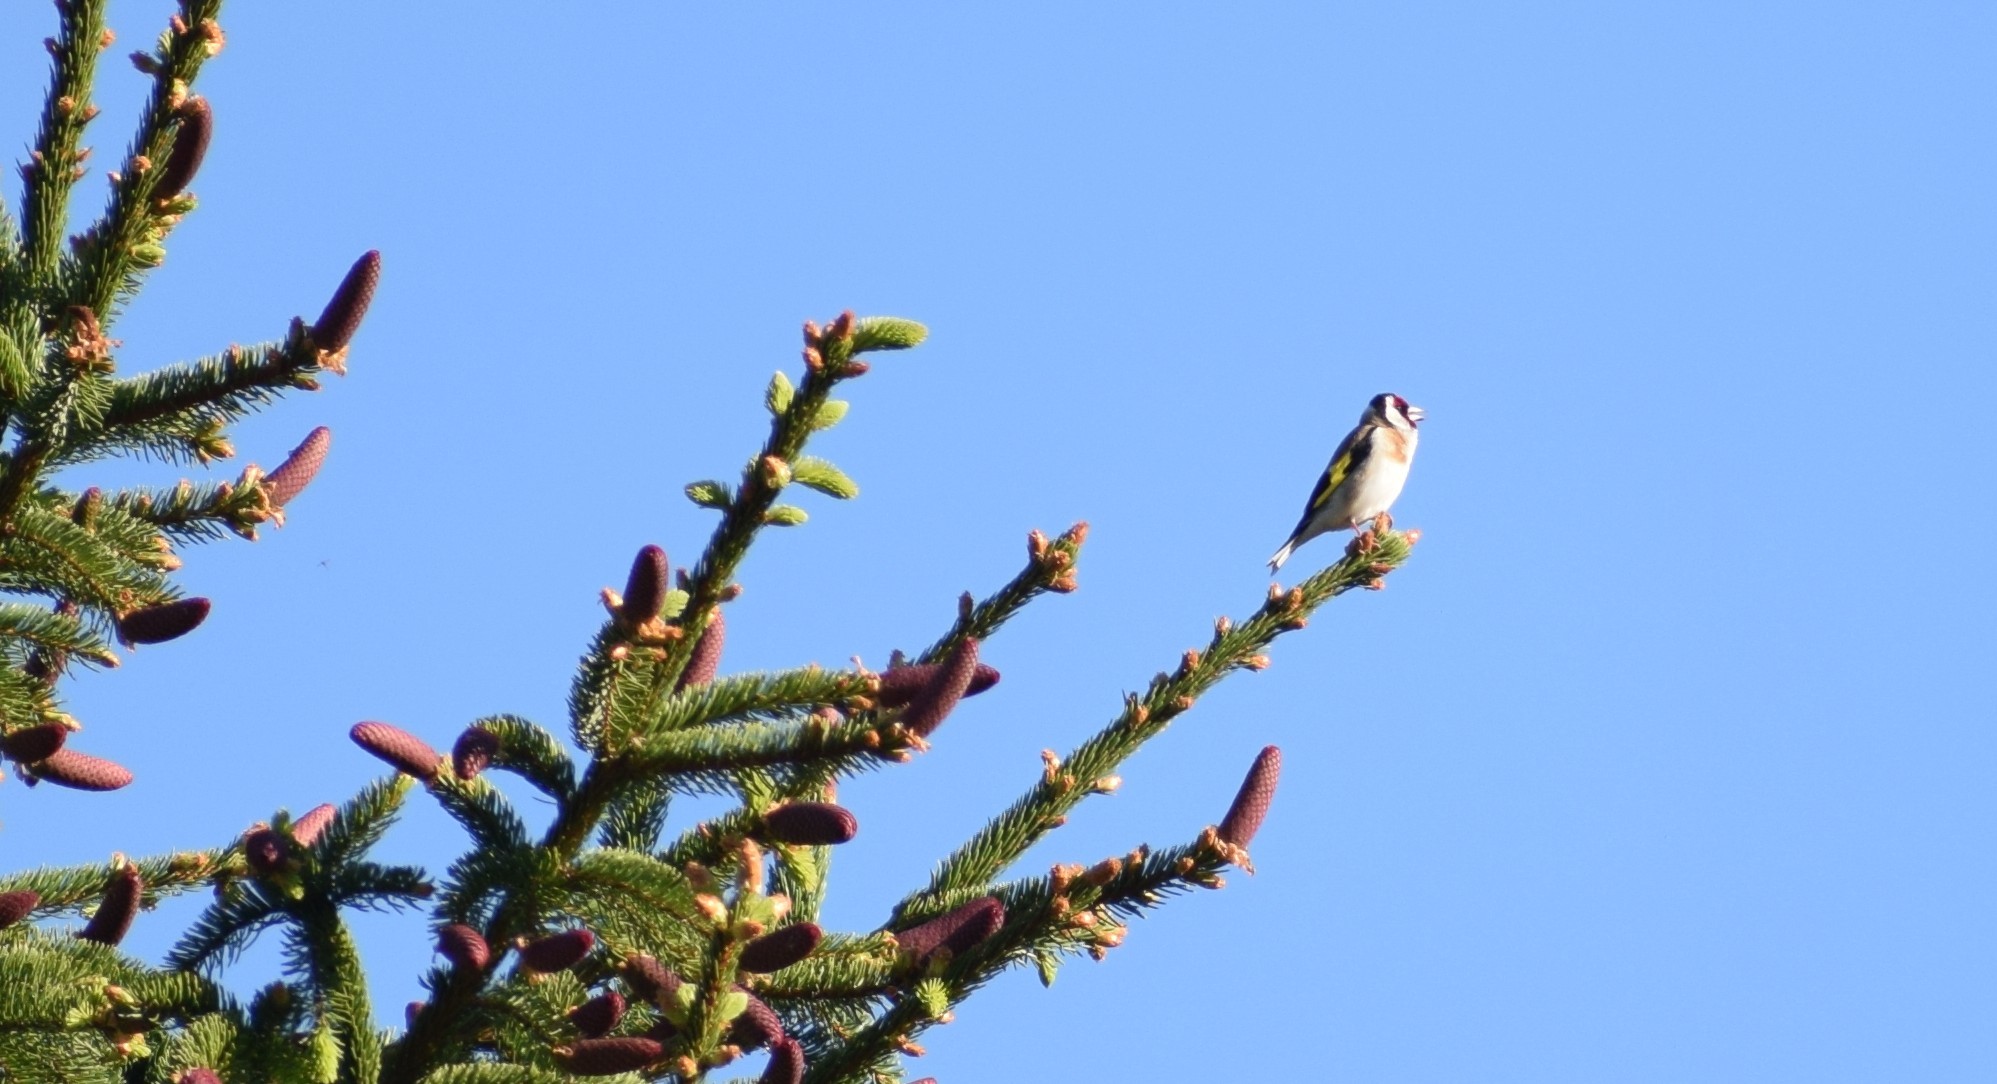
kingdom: Animalia
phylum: Chordata
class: Aves
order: Passeriformes
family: Fringillidae
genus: Carduelis
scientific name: Carduelis carduelis
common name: European goldfinch
